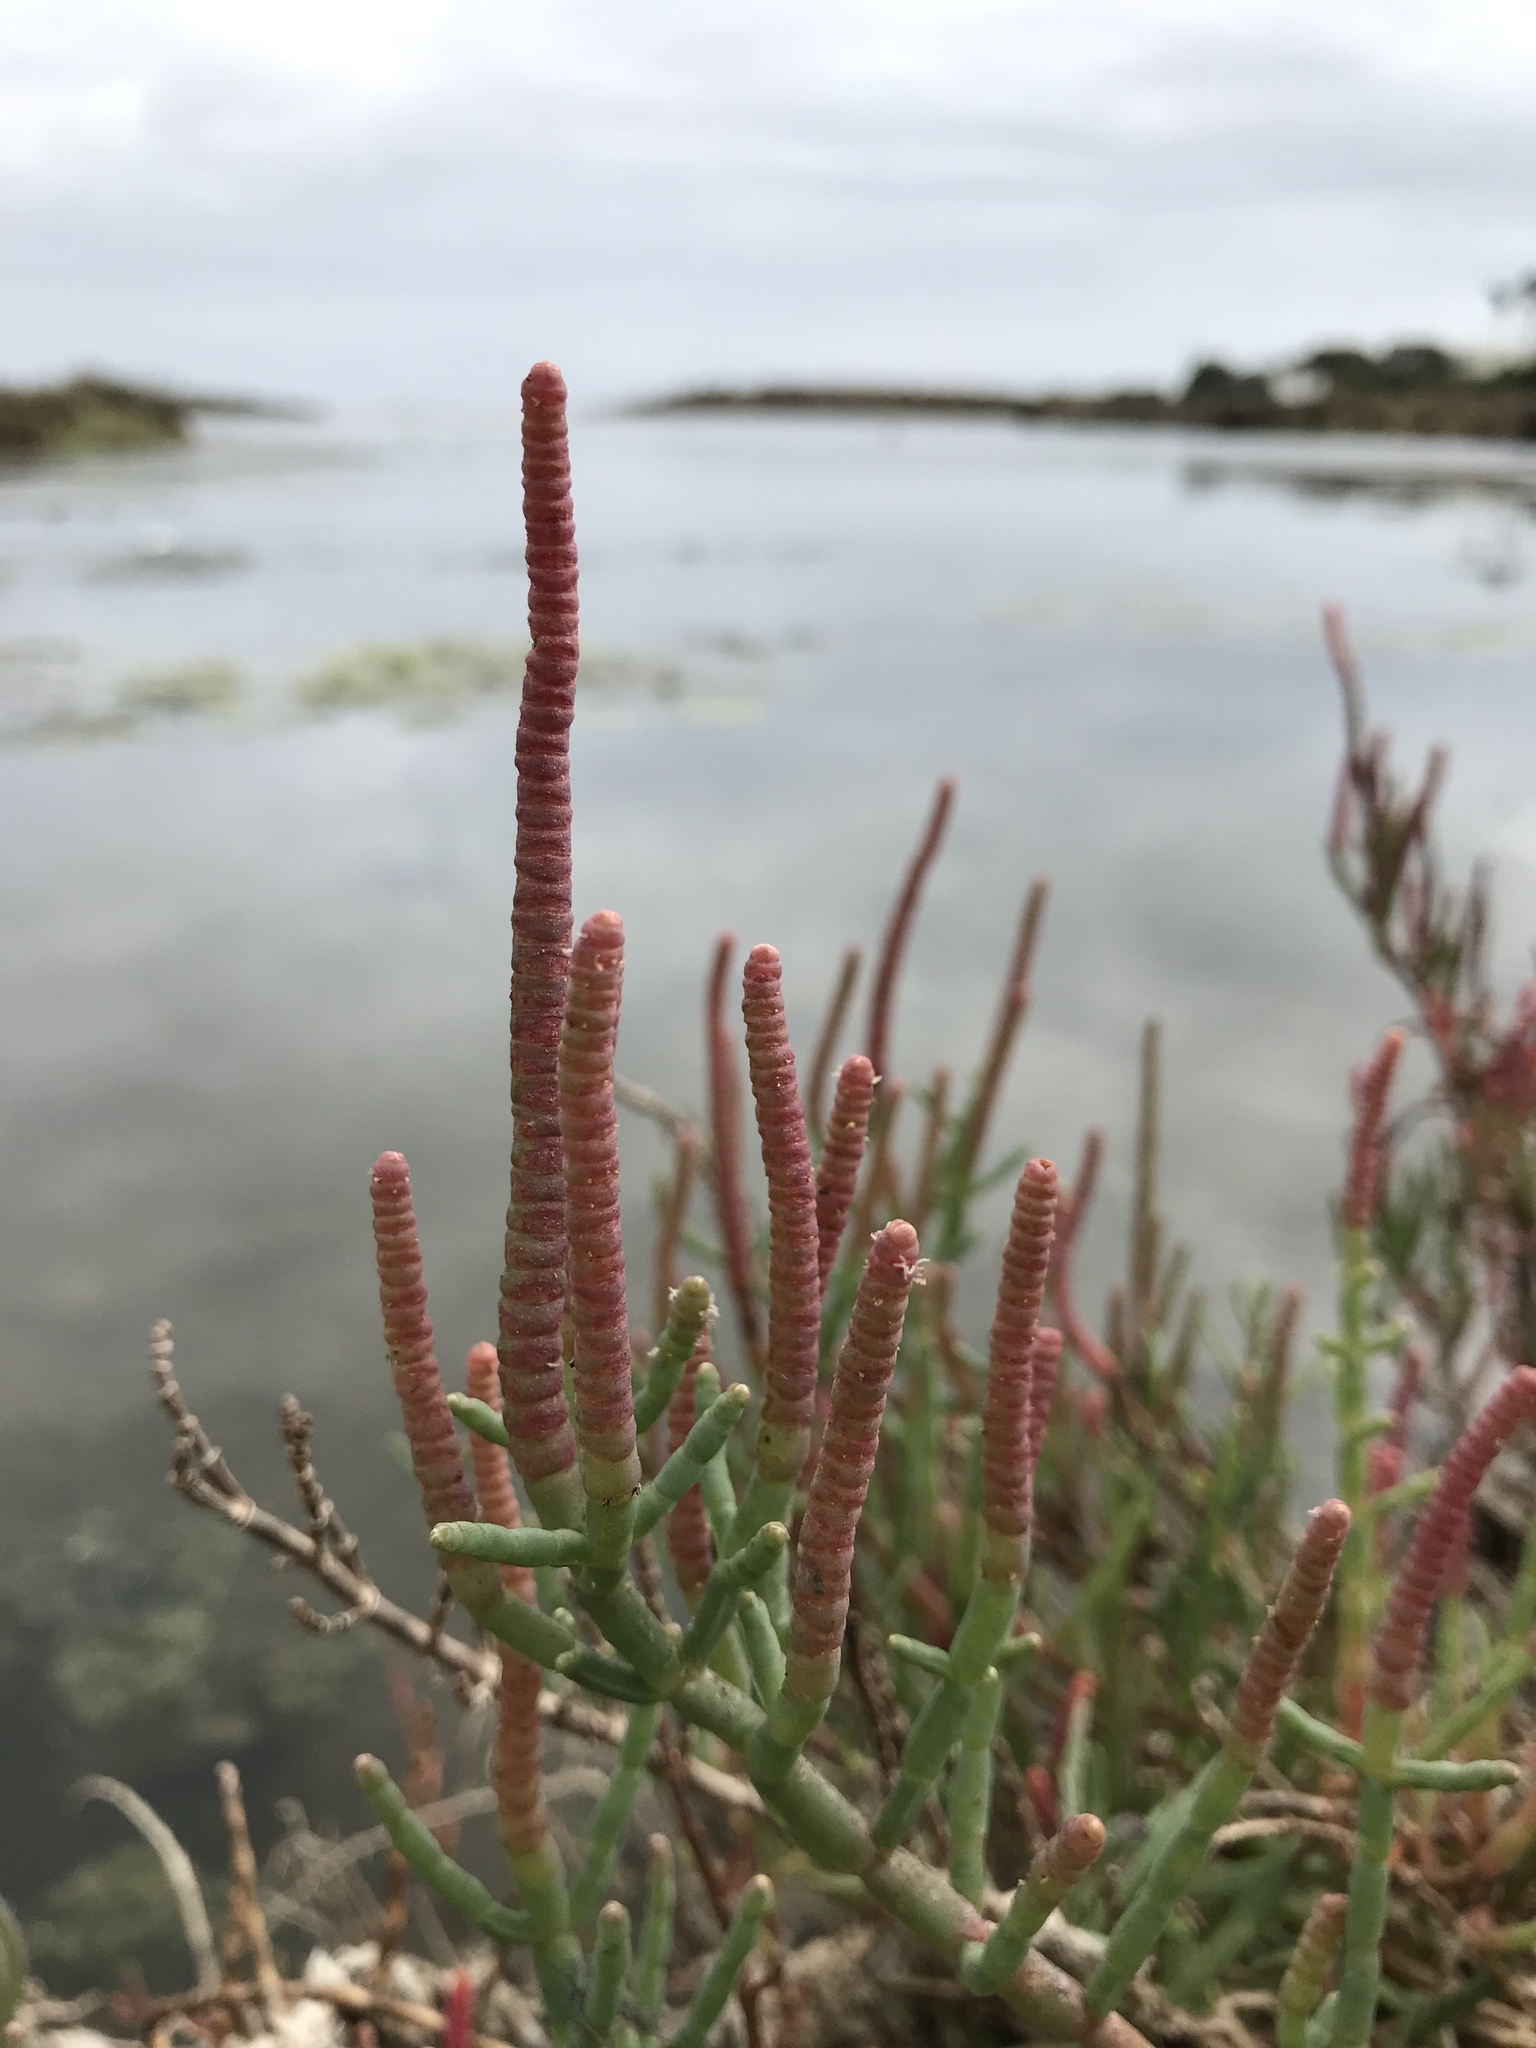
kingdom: Plantae
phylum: Tracheophyta
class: Magnoliopsida
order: Caryophyllales
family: Amaranthaceae
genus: Salicornia
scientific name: Salicornia pacifica
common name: Pacific glasswort
